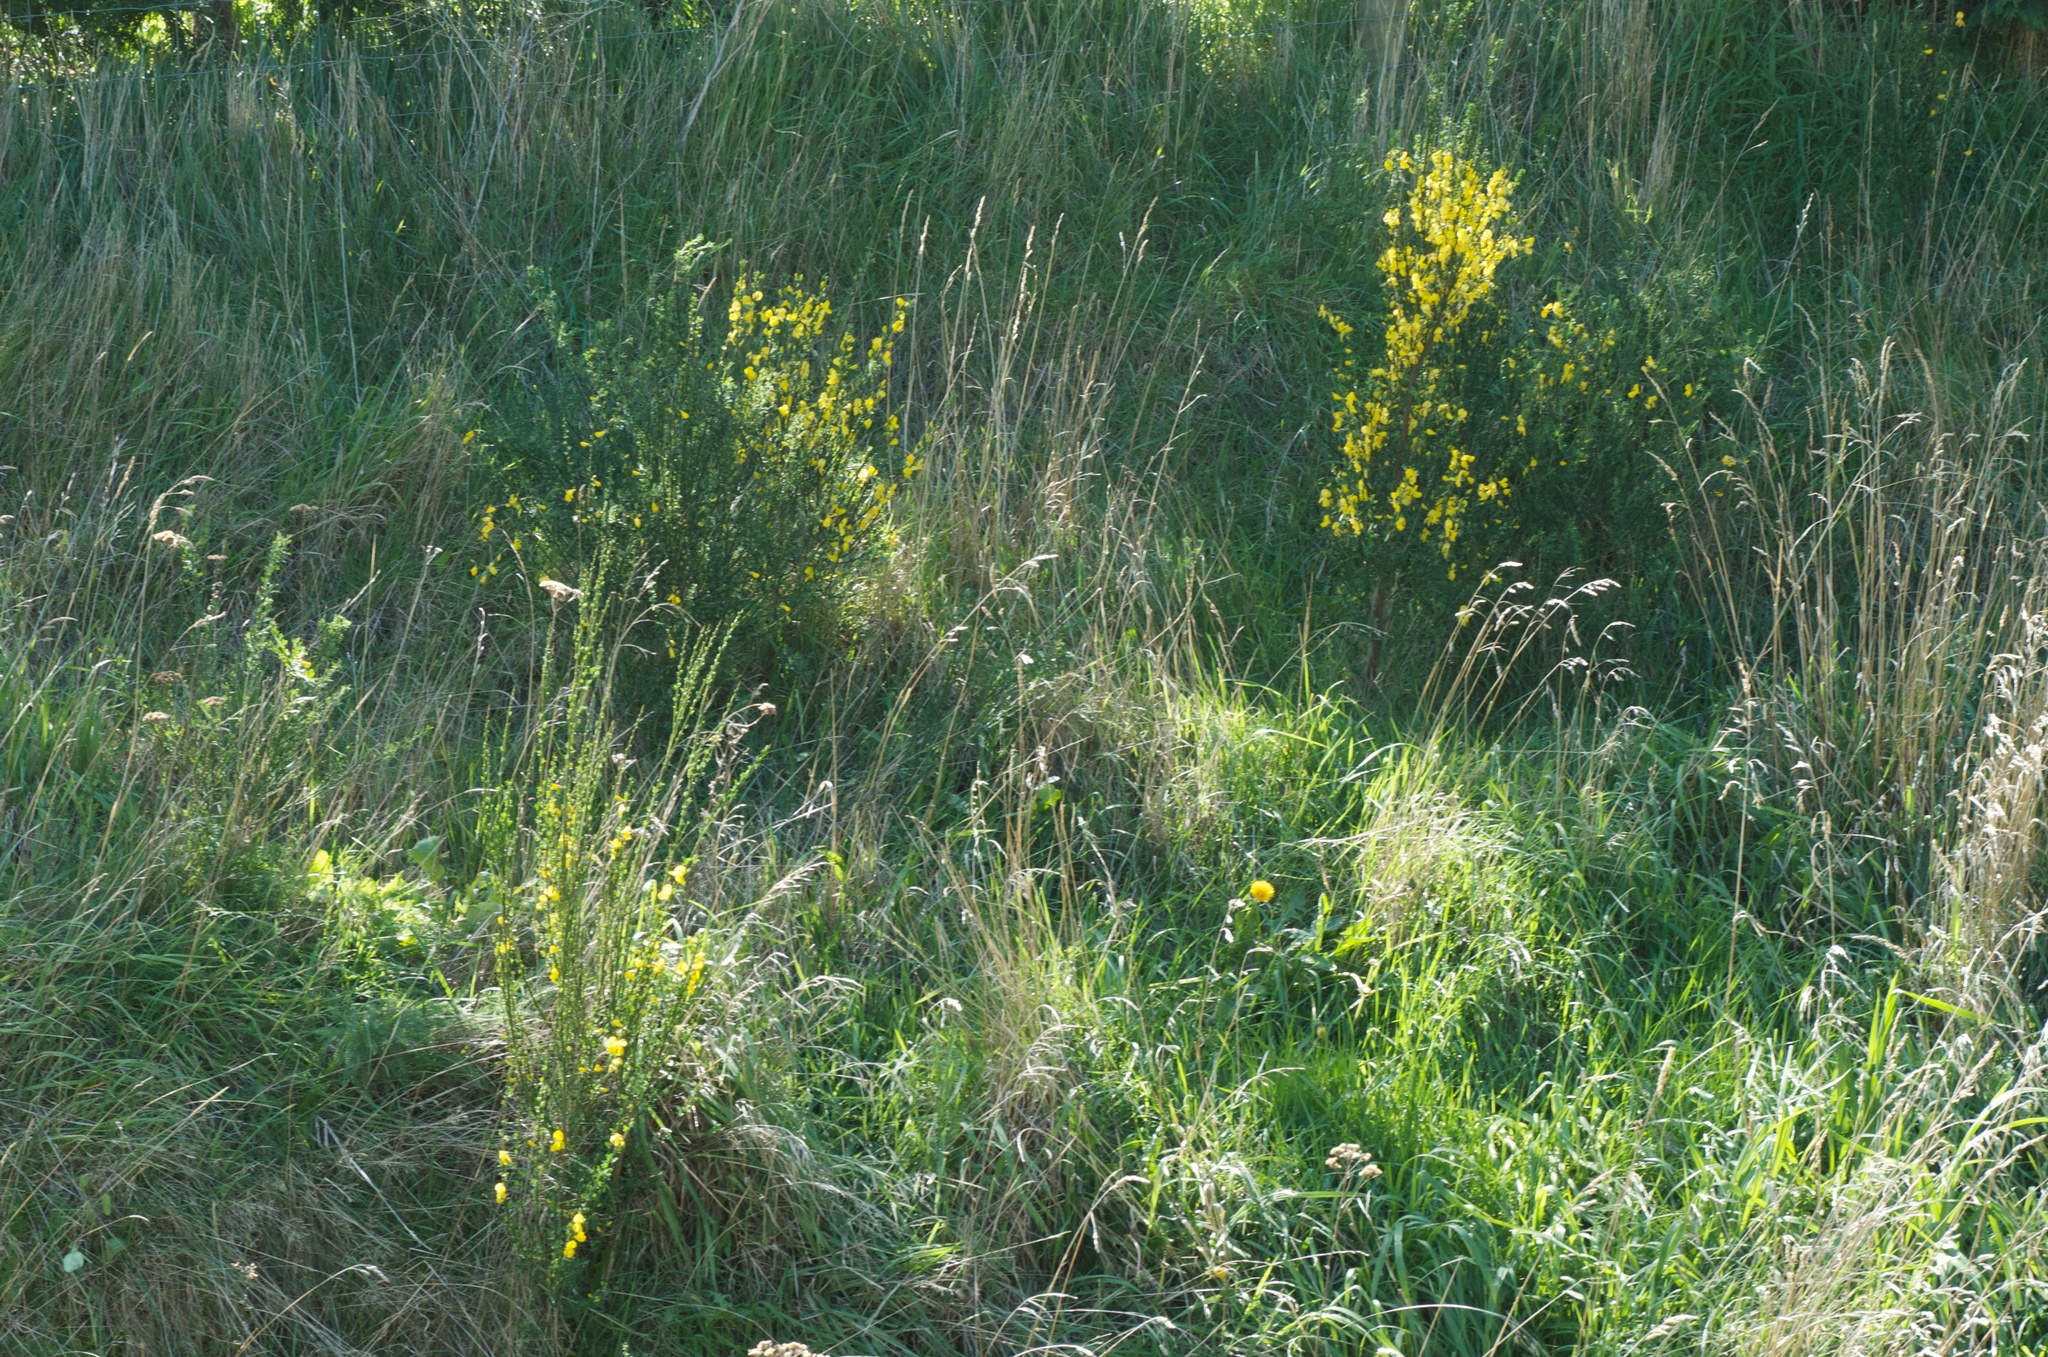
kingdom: Plantae
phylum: Tracheophyta
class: Magnoliopsida
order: Fabales
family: Fabaceae
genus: Cytisus
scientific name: Cytisus scoparius
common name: Scotch broom
